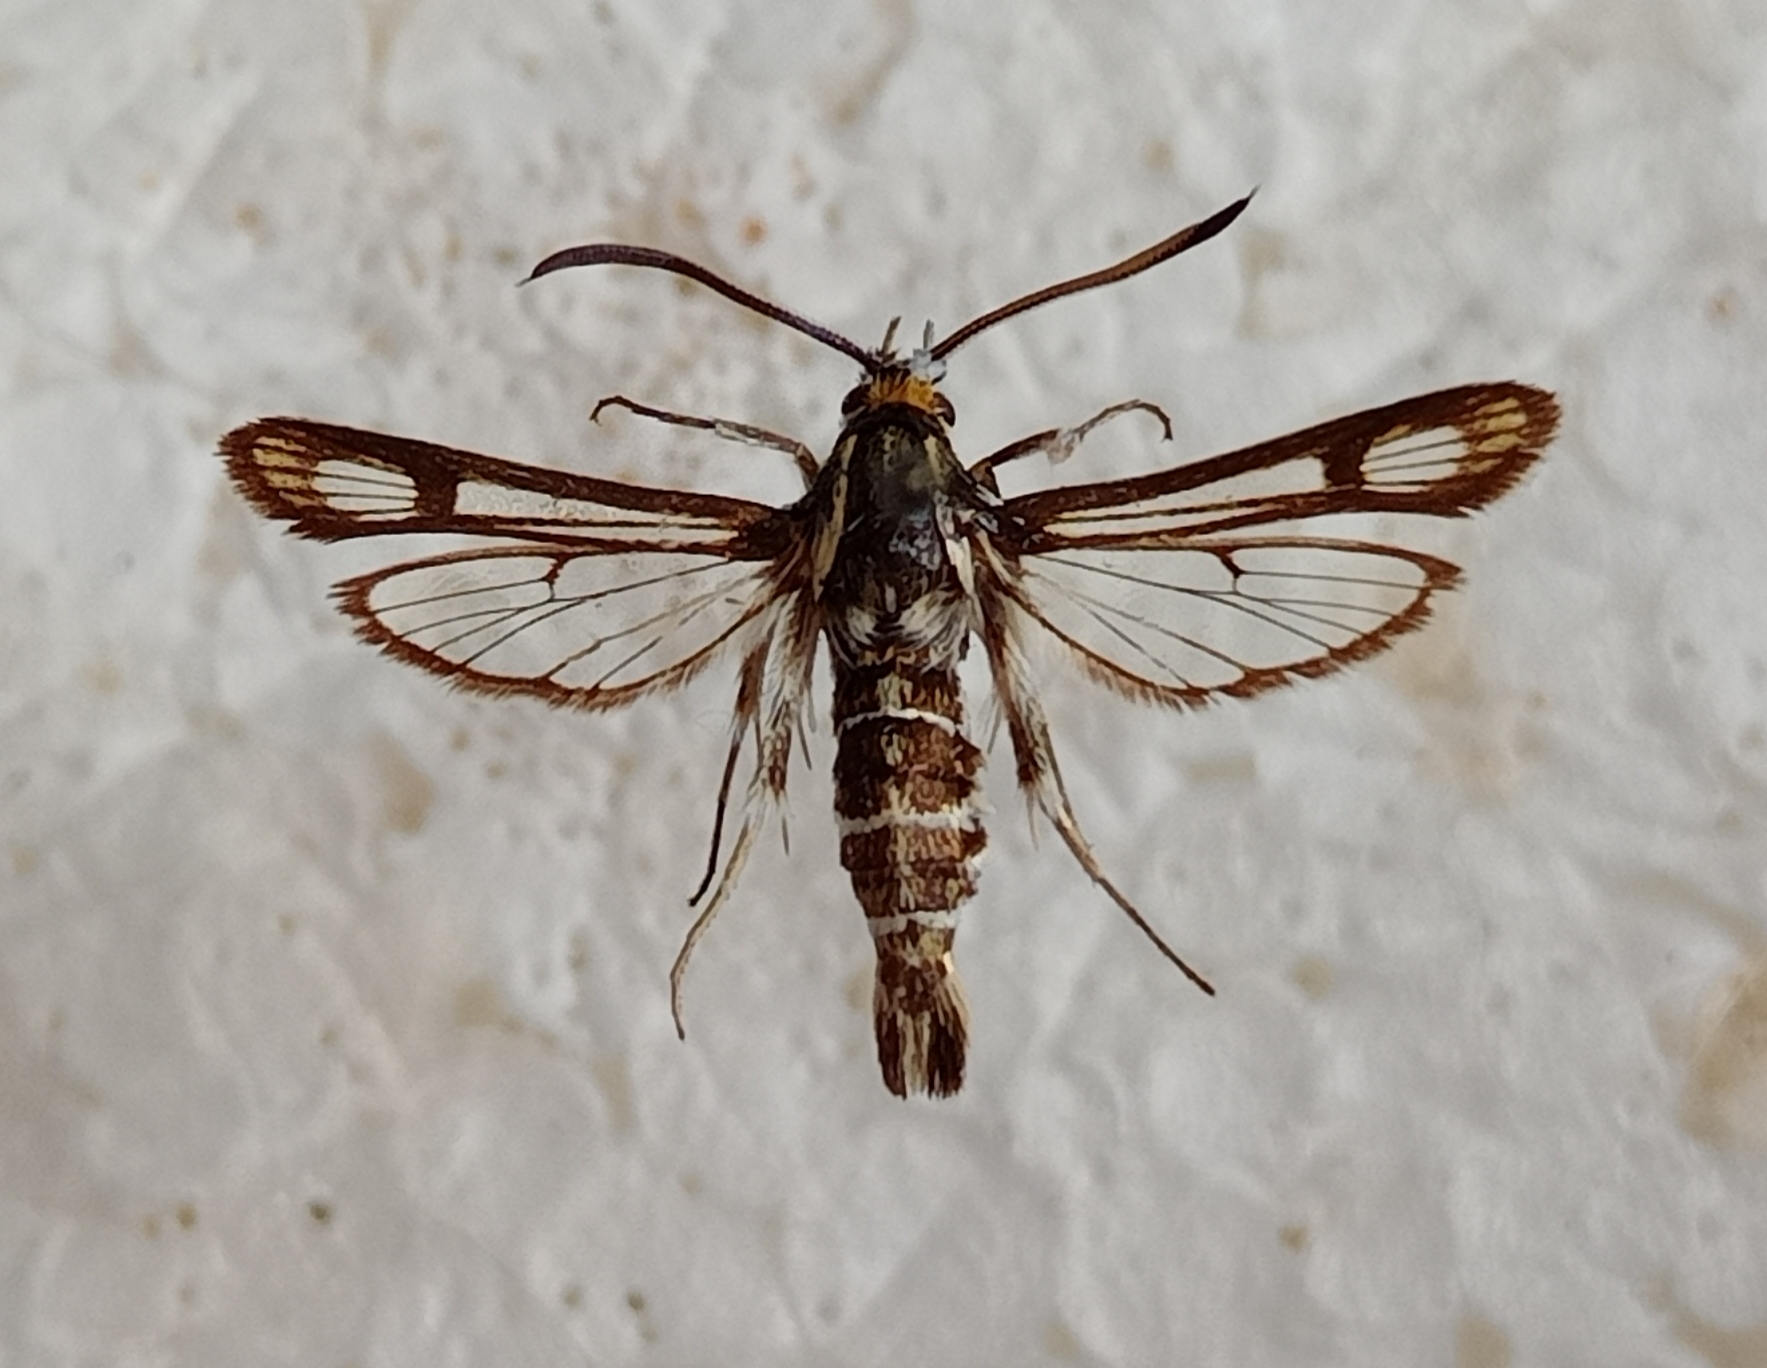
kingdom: Animalia
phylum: Arthropoda
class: Insecta
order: Lepidoptera
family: Sesiidae
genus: Chamaesphecia
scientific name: Chamaesphecia bibioniformis
